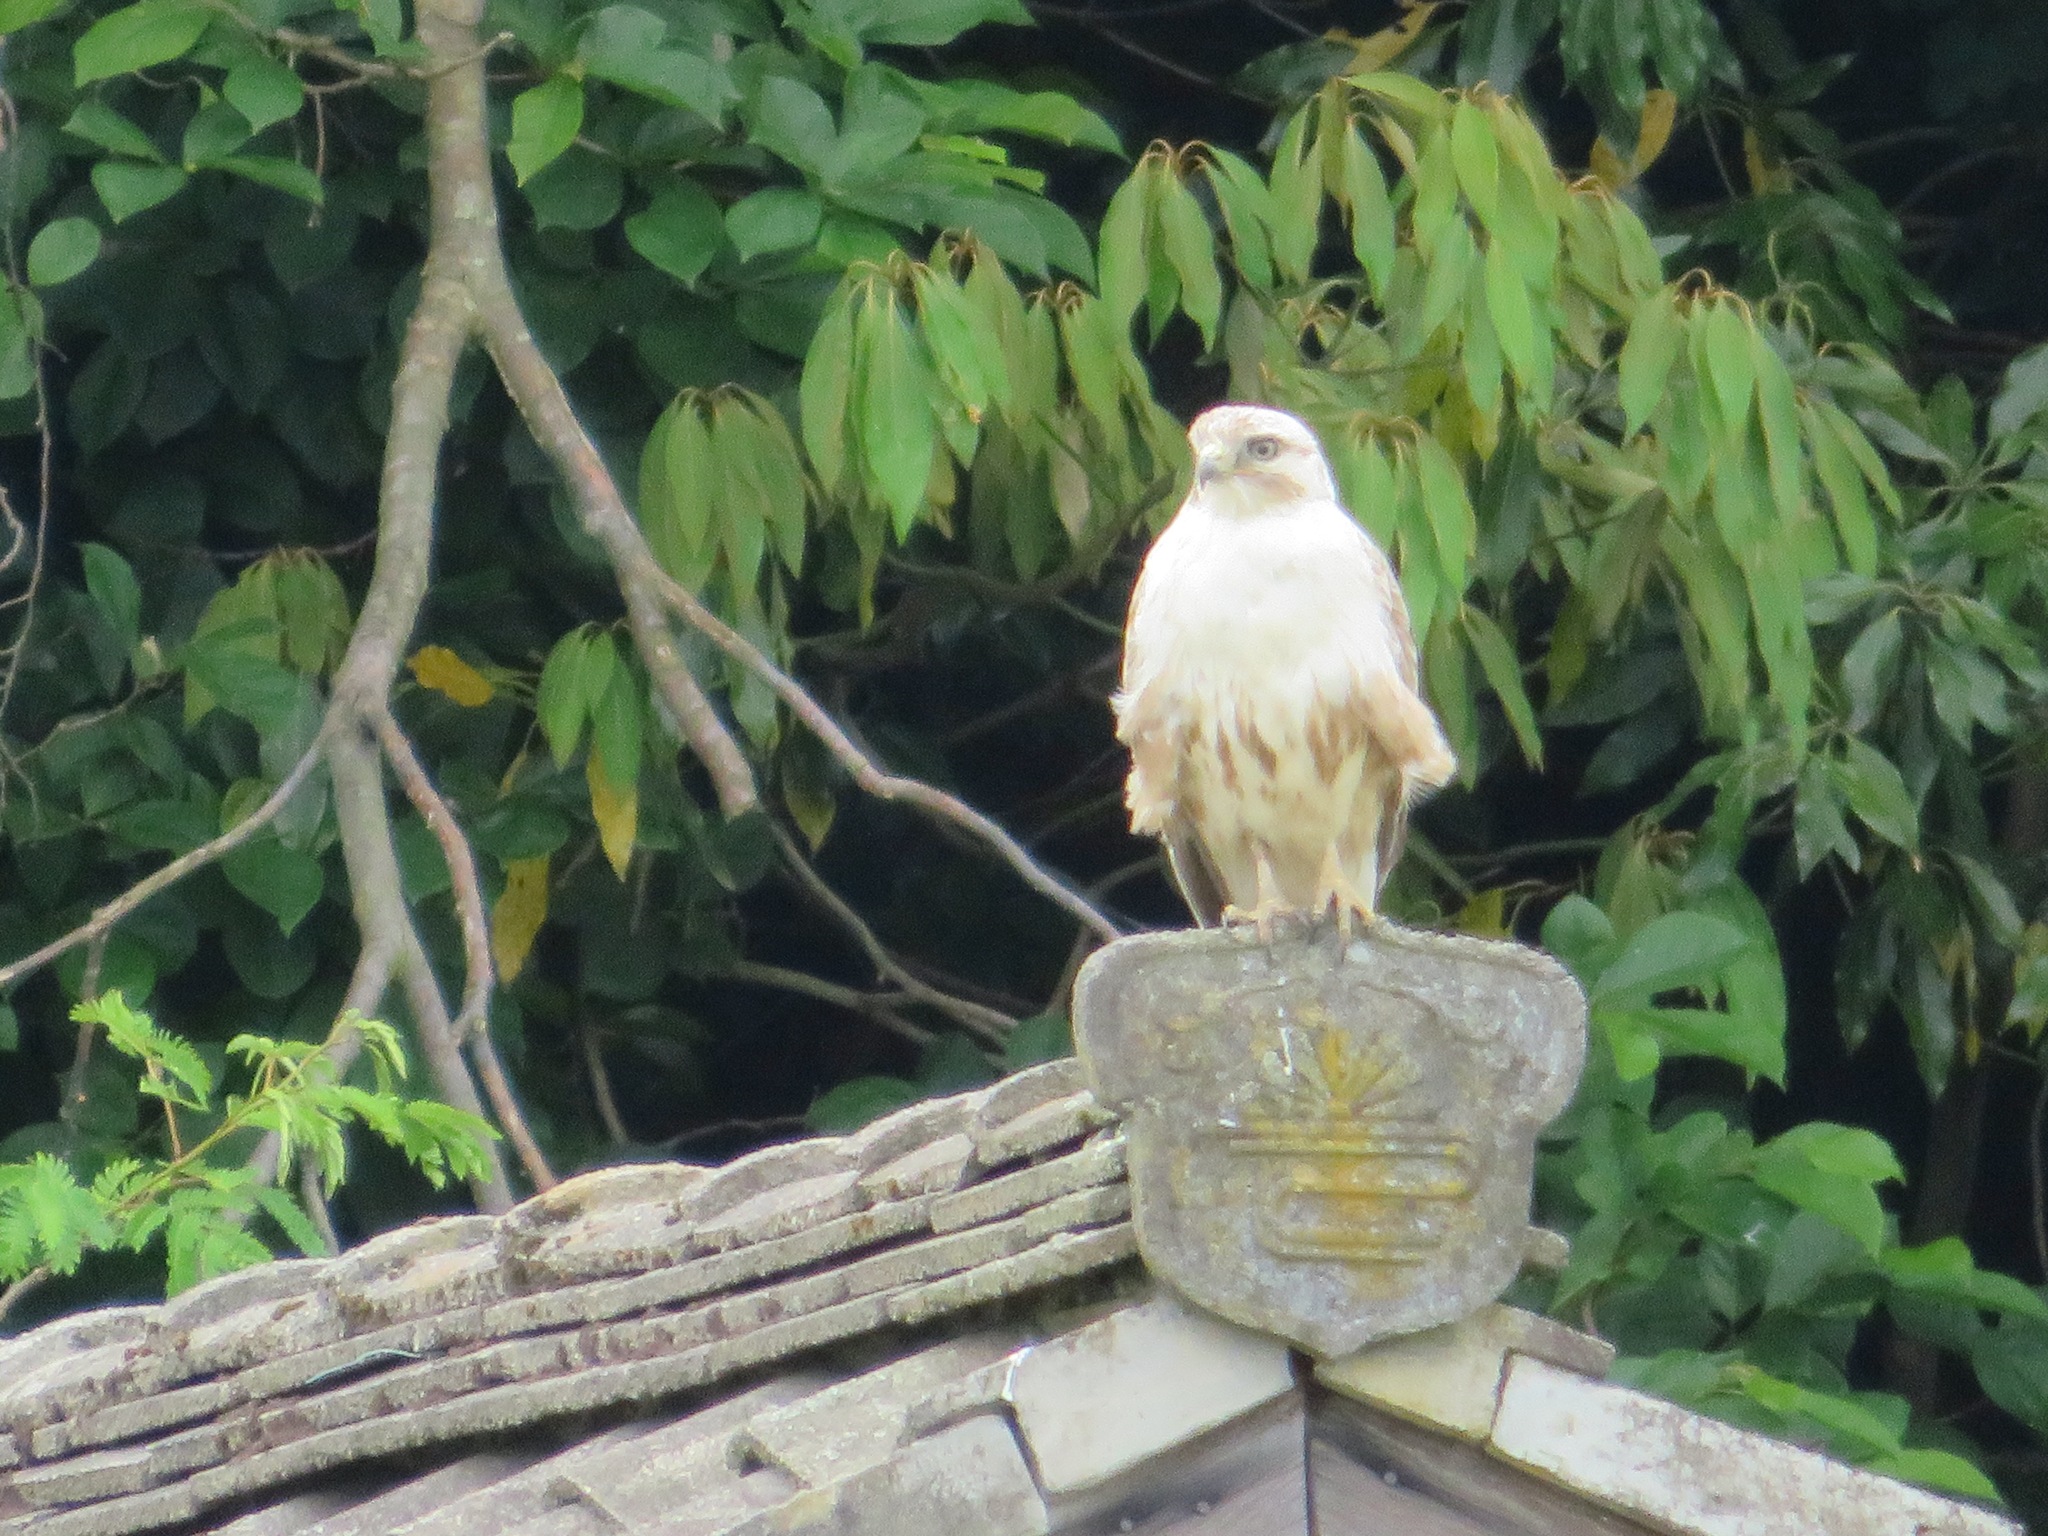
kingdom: Animalia
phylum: Chordata
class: Aves
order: Accipitriformes
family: Accipitridae
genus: Buteo
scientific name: Buteo japonicus
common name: Eastern buzzard
